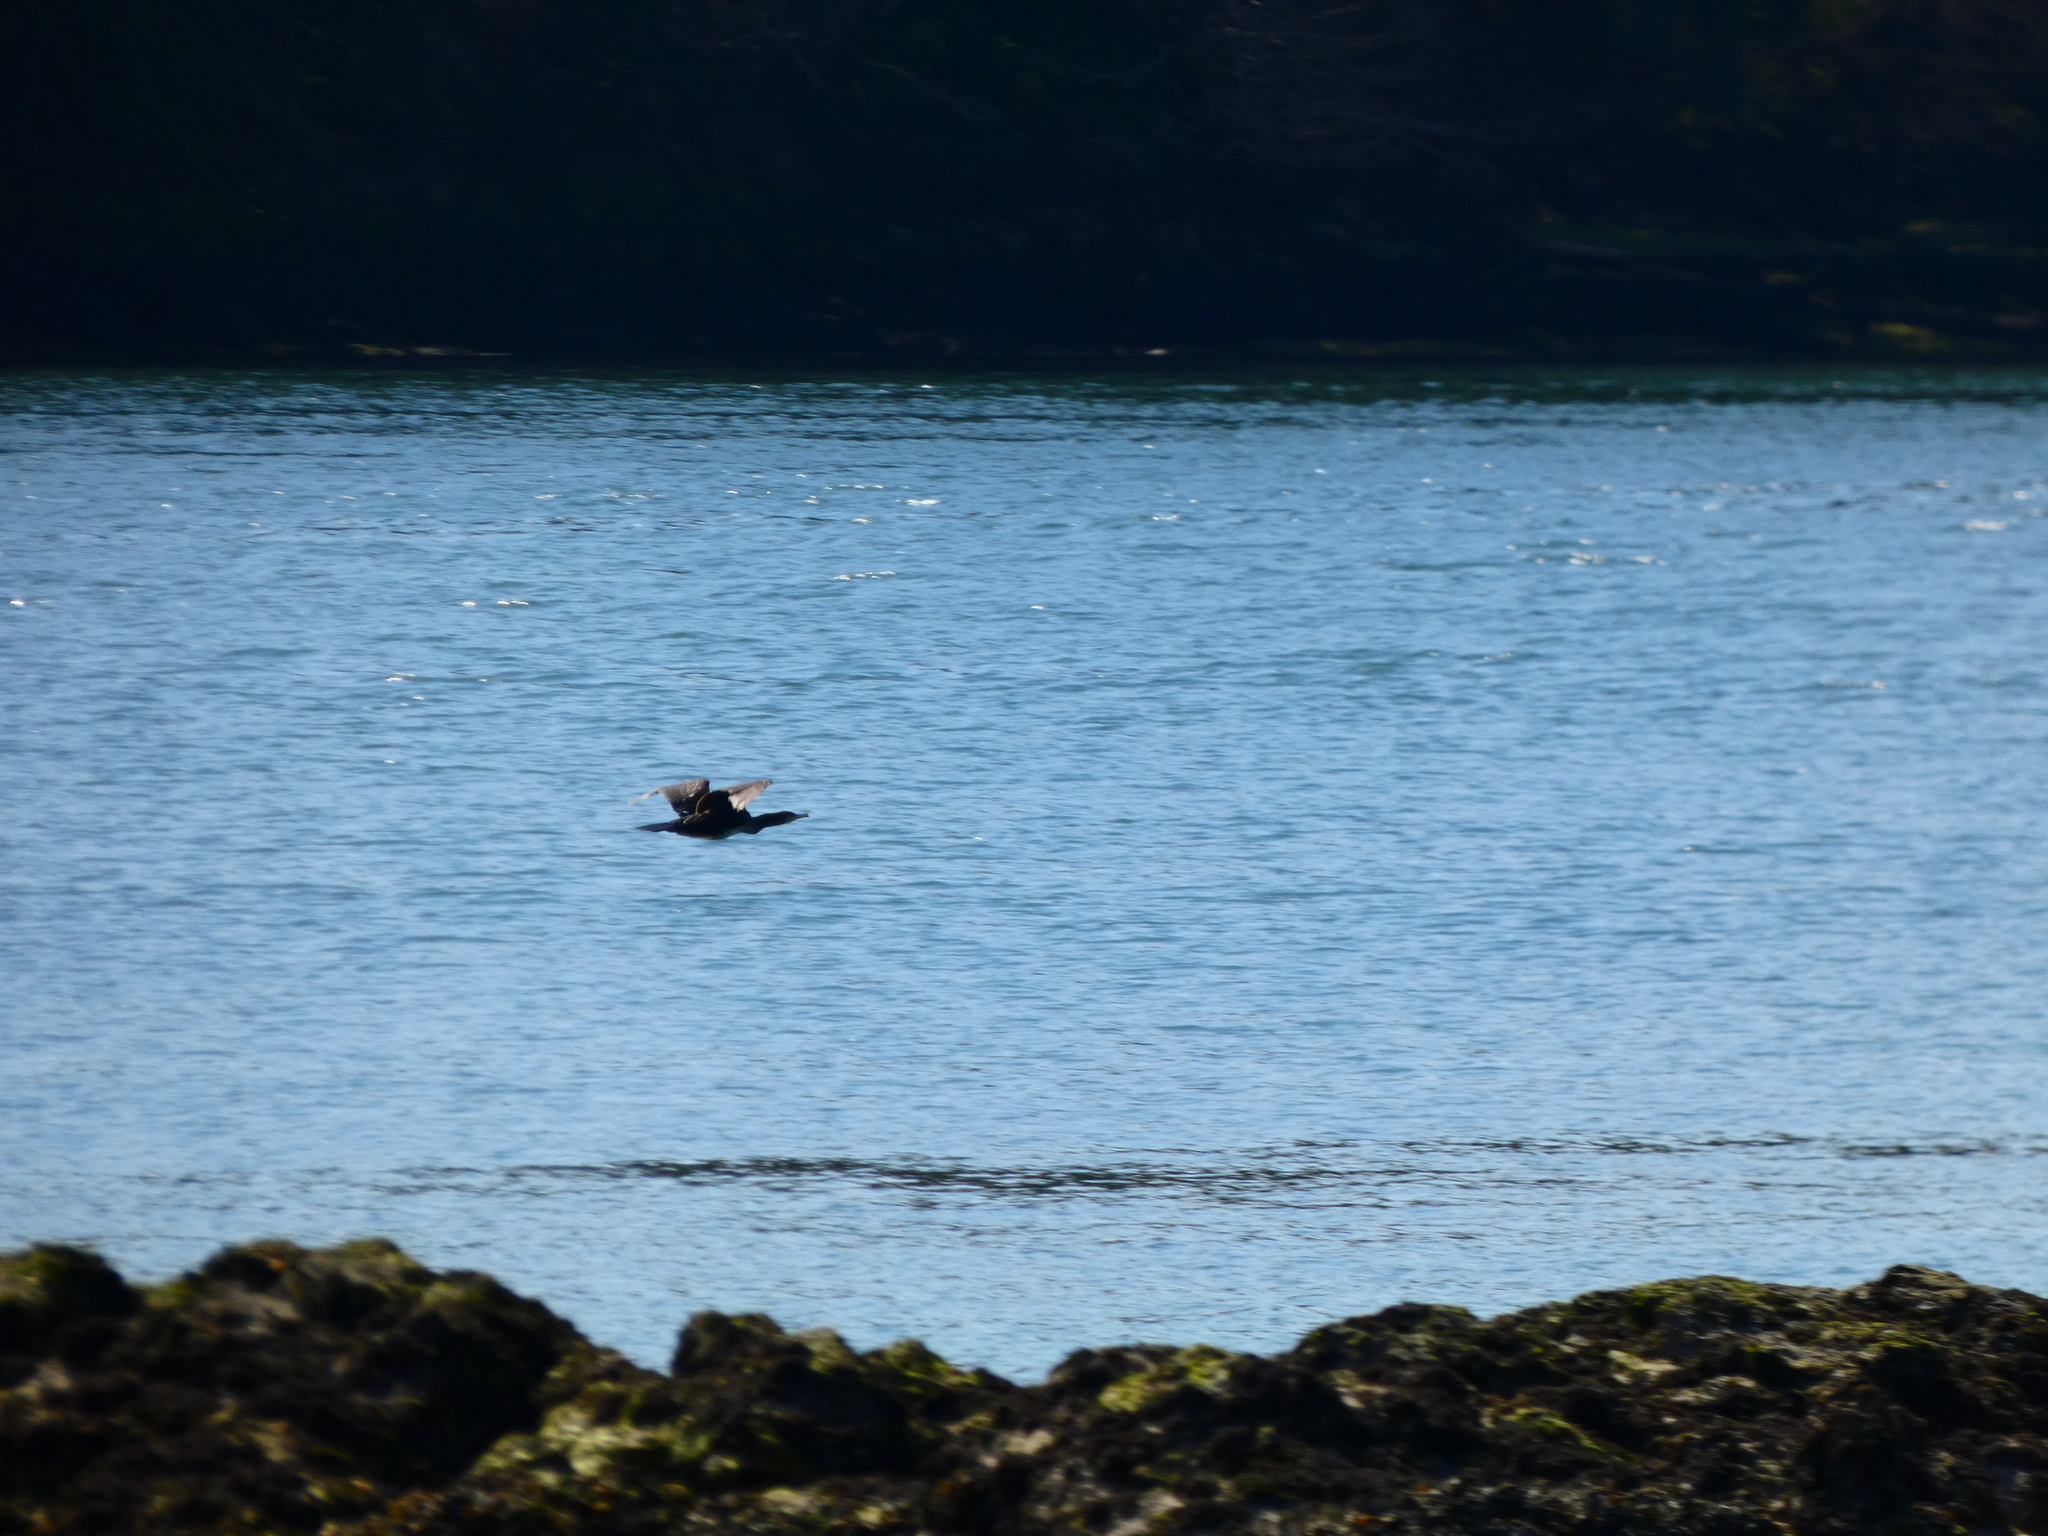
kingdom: Animalia
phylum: Chordata
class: Aves
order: Suliformes
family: Phalacrocoracidae
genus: Phalacrocorax
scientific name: Phalacrocorax aristotelis
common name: European shag
